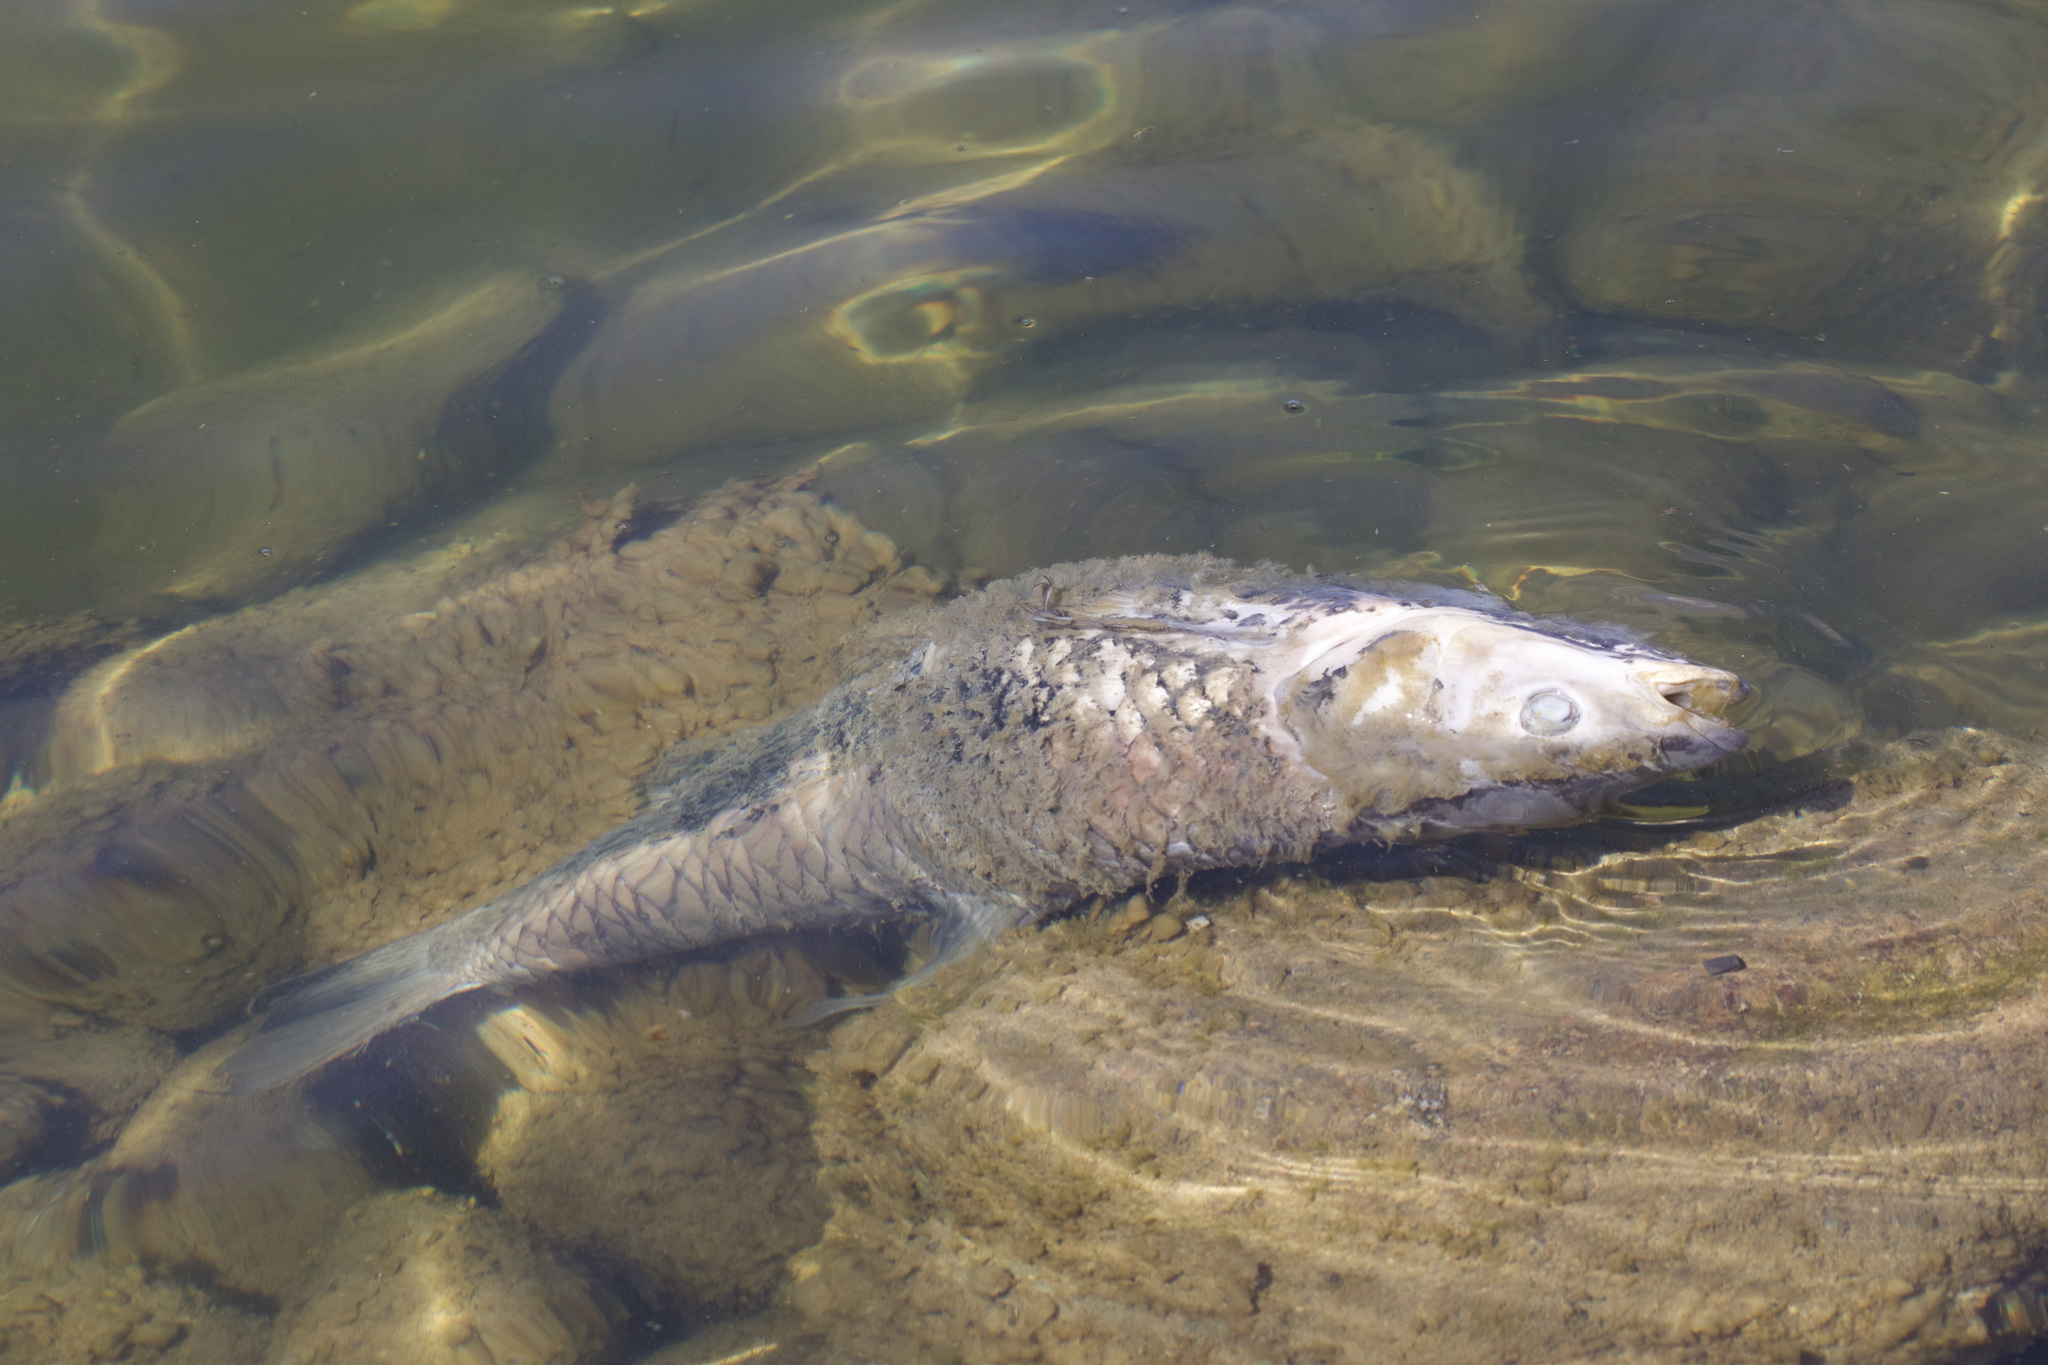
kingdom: Animalia
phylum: Chordata
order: Cypriniformes
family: Cyprinidae
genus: Ctenopharyngodon
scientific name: Ctenopharyngodon idella
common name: Grass carp
